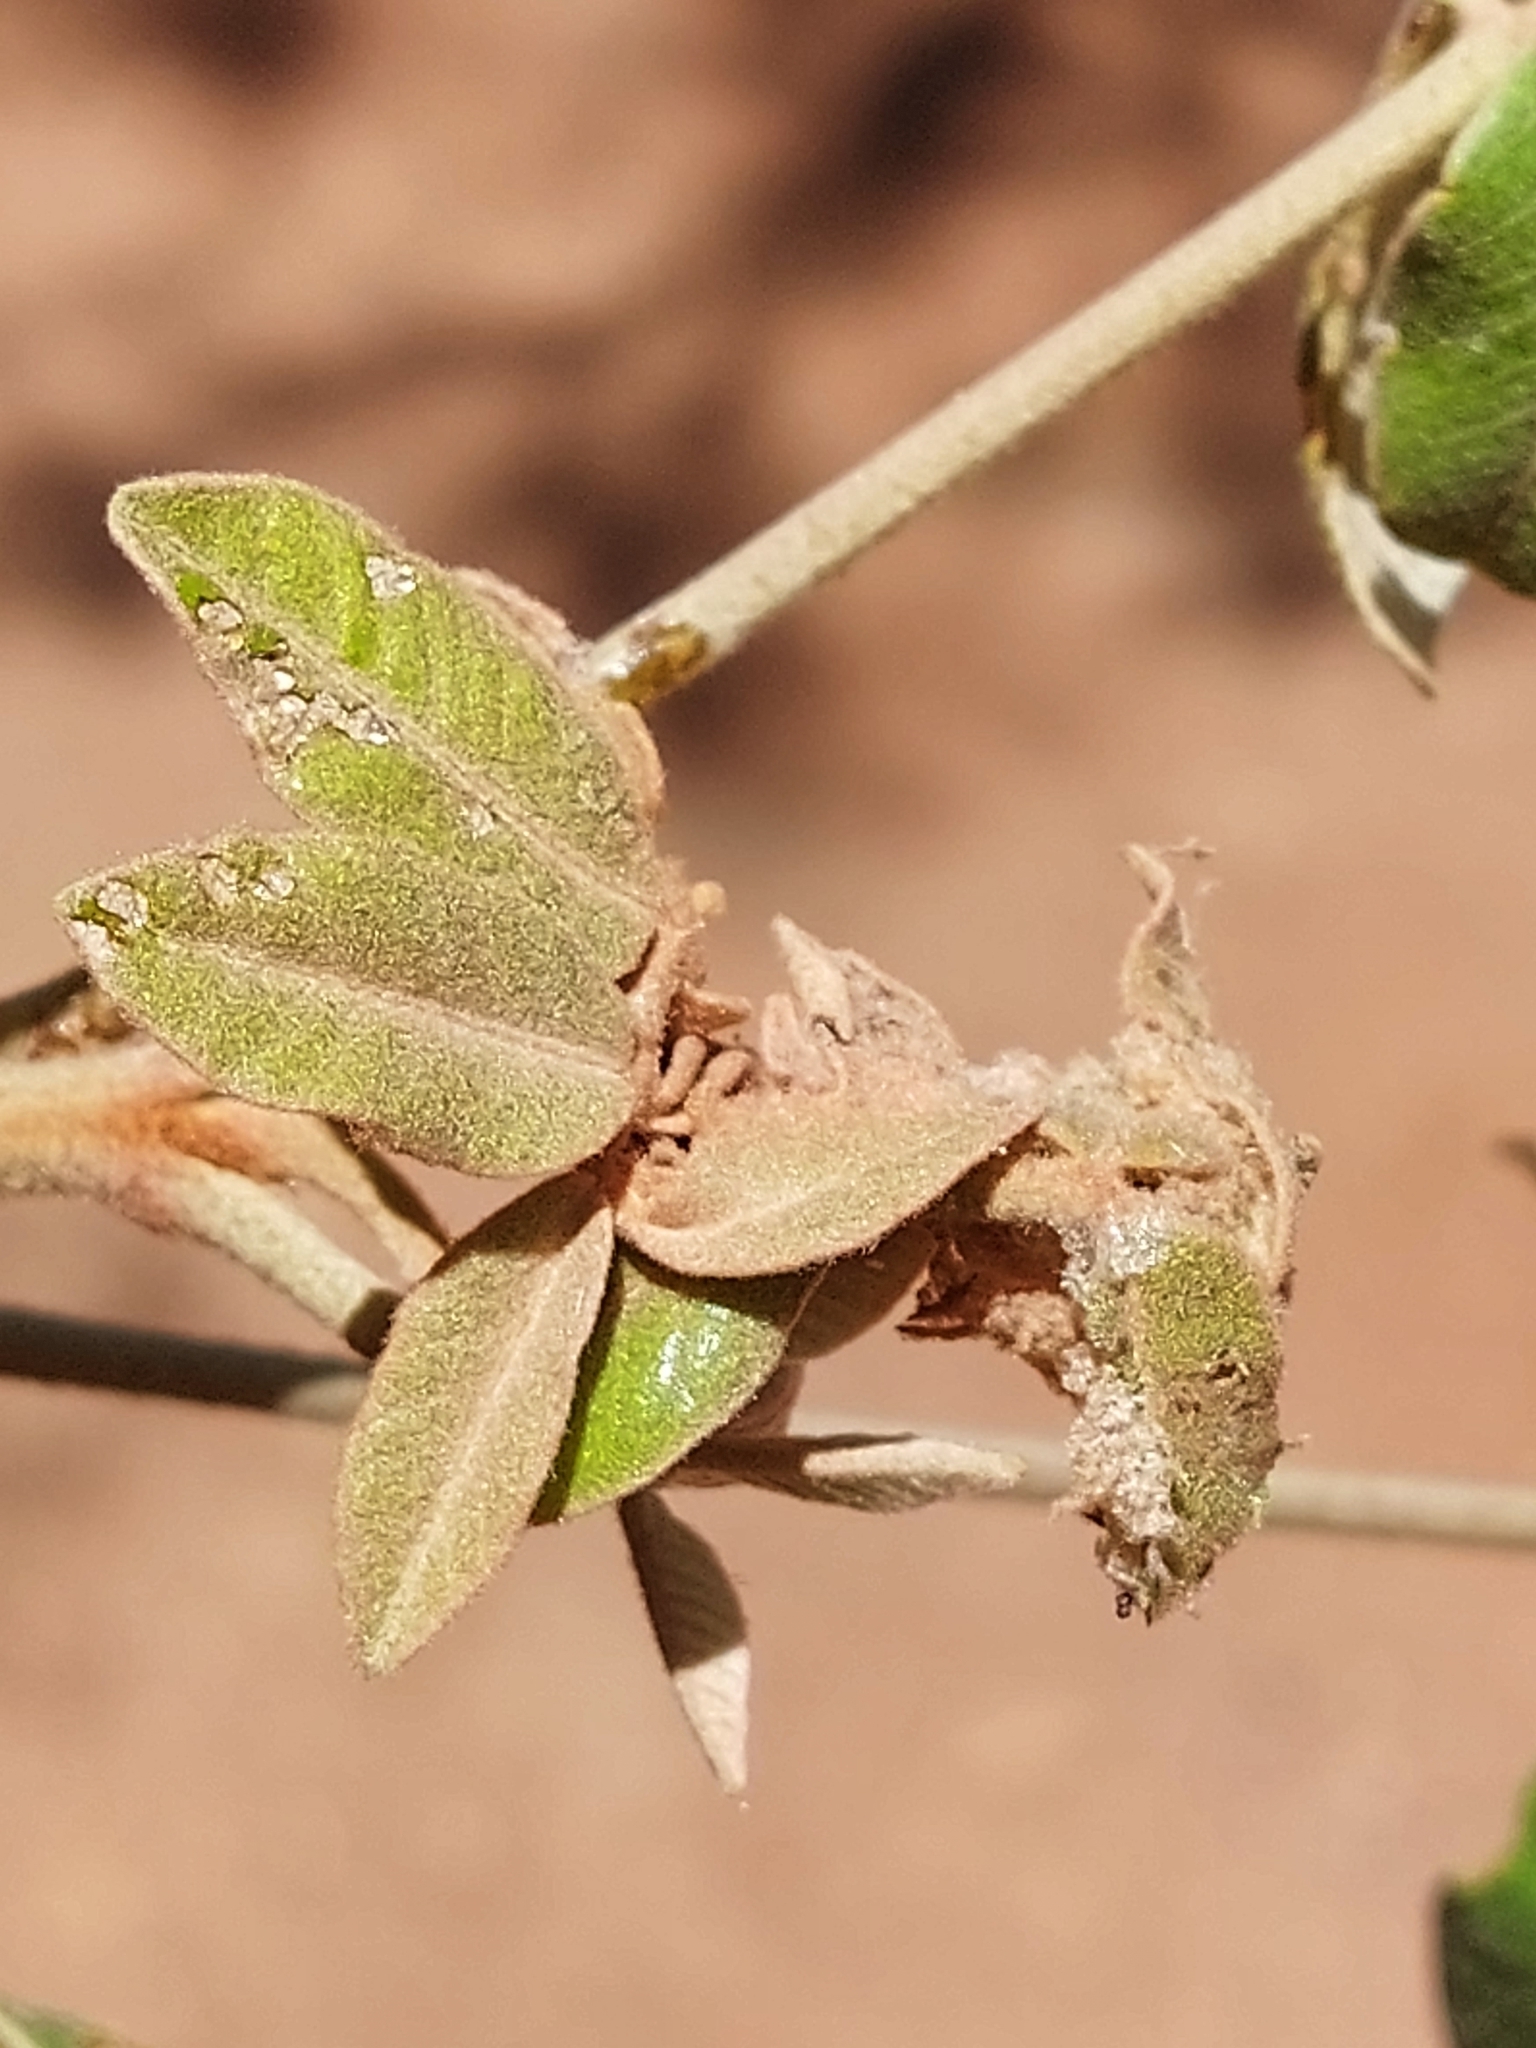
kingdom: Plantae
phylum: Tracheophyta
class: Magnoliopsida
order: Sapindales
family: Anacardiaceae
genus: Lannea
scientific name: Lannea discolor
